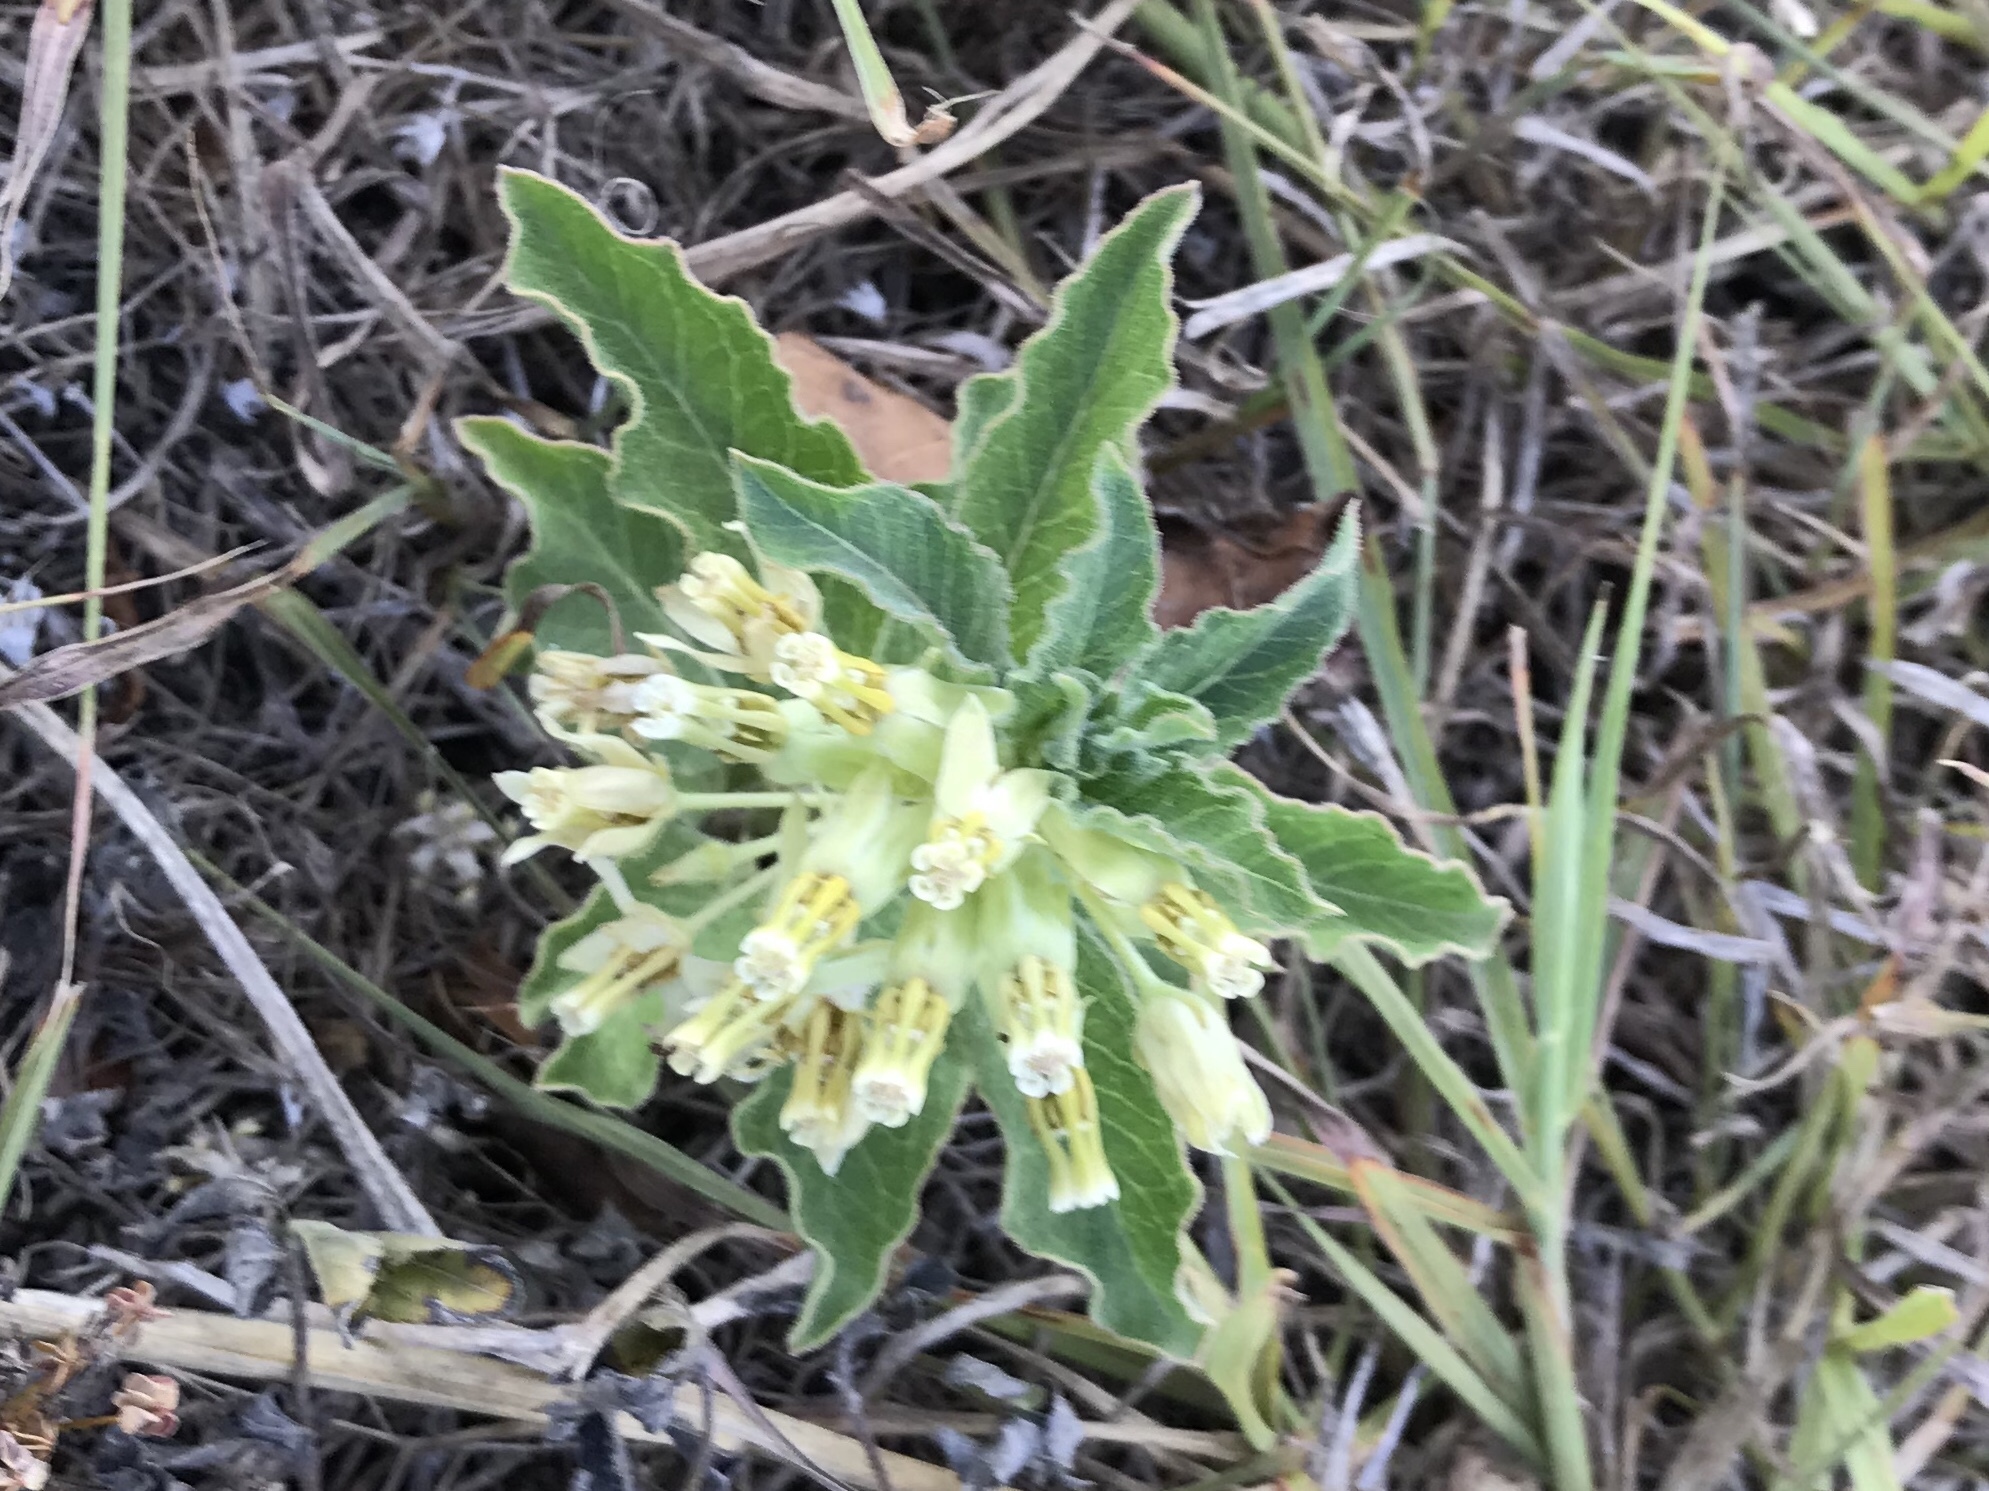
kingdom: Plantae
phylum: Tracheophyta
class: Magnoliopsida
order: Gentianales
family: Apocynaceae
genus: Asclepias
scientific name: Asclepias oenotheroides
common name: Zizotes milkweed
